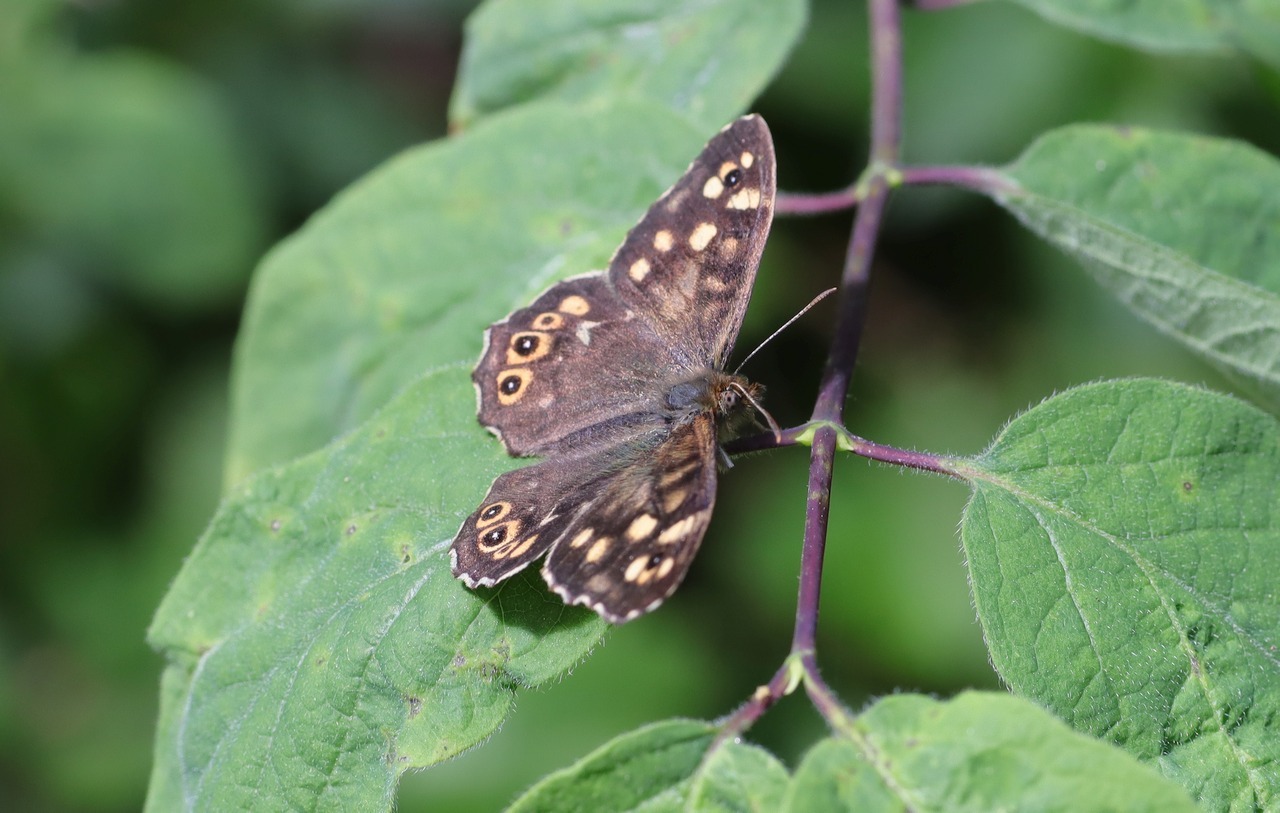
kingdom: Animalia
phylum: Arthropoda
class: Insecta
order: Lepidoptera
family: Nymphalidae
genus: Pararge
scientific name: Pararge aegeria
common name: Speckled wood
